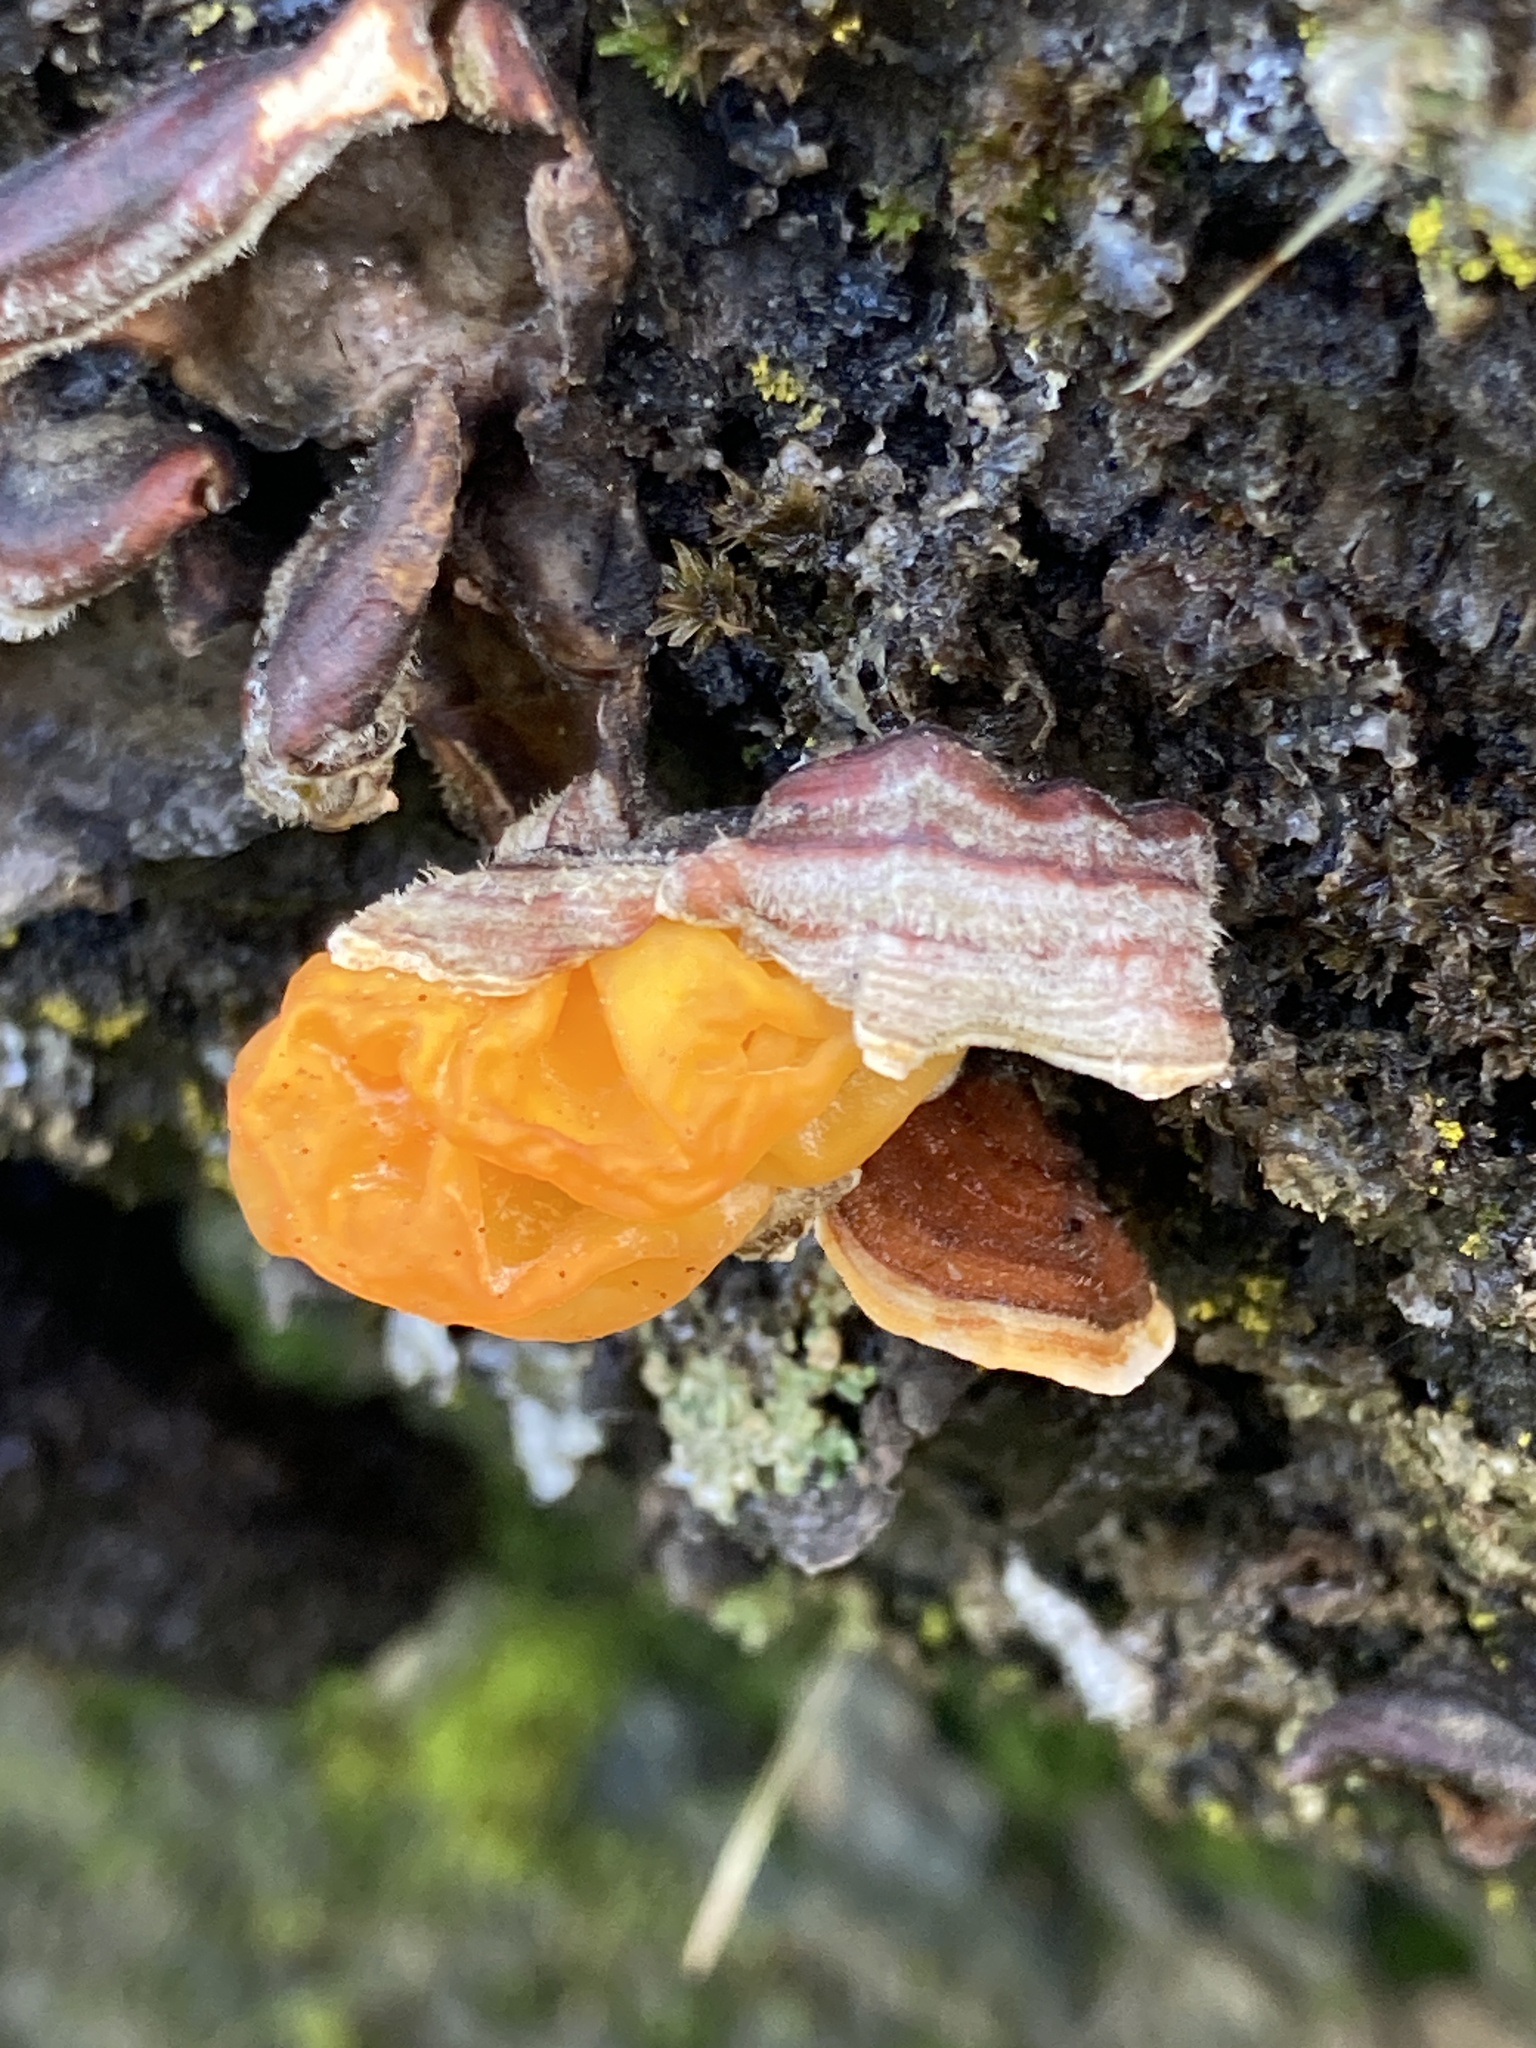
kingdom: Fungi
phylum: Basidiomycota
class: Tremellomycetes
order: Tremellales
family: Naemateliaceae
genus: Naematelia
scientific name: Naematelia aurantia
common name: Golden ear
